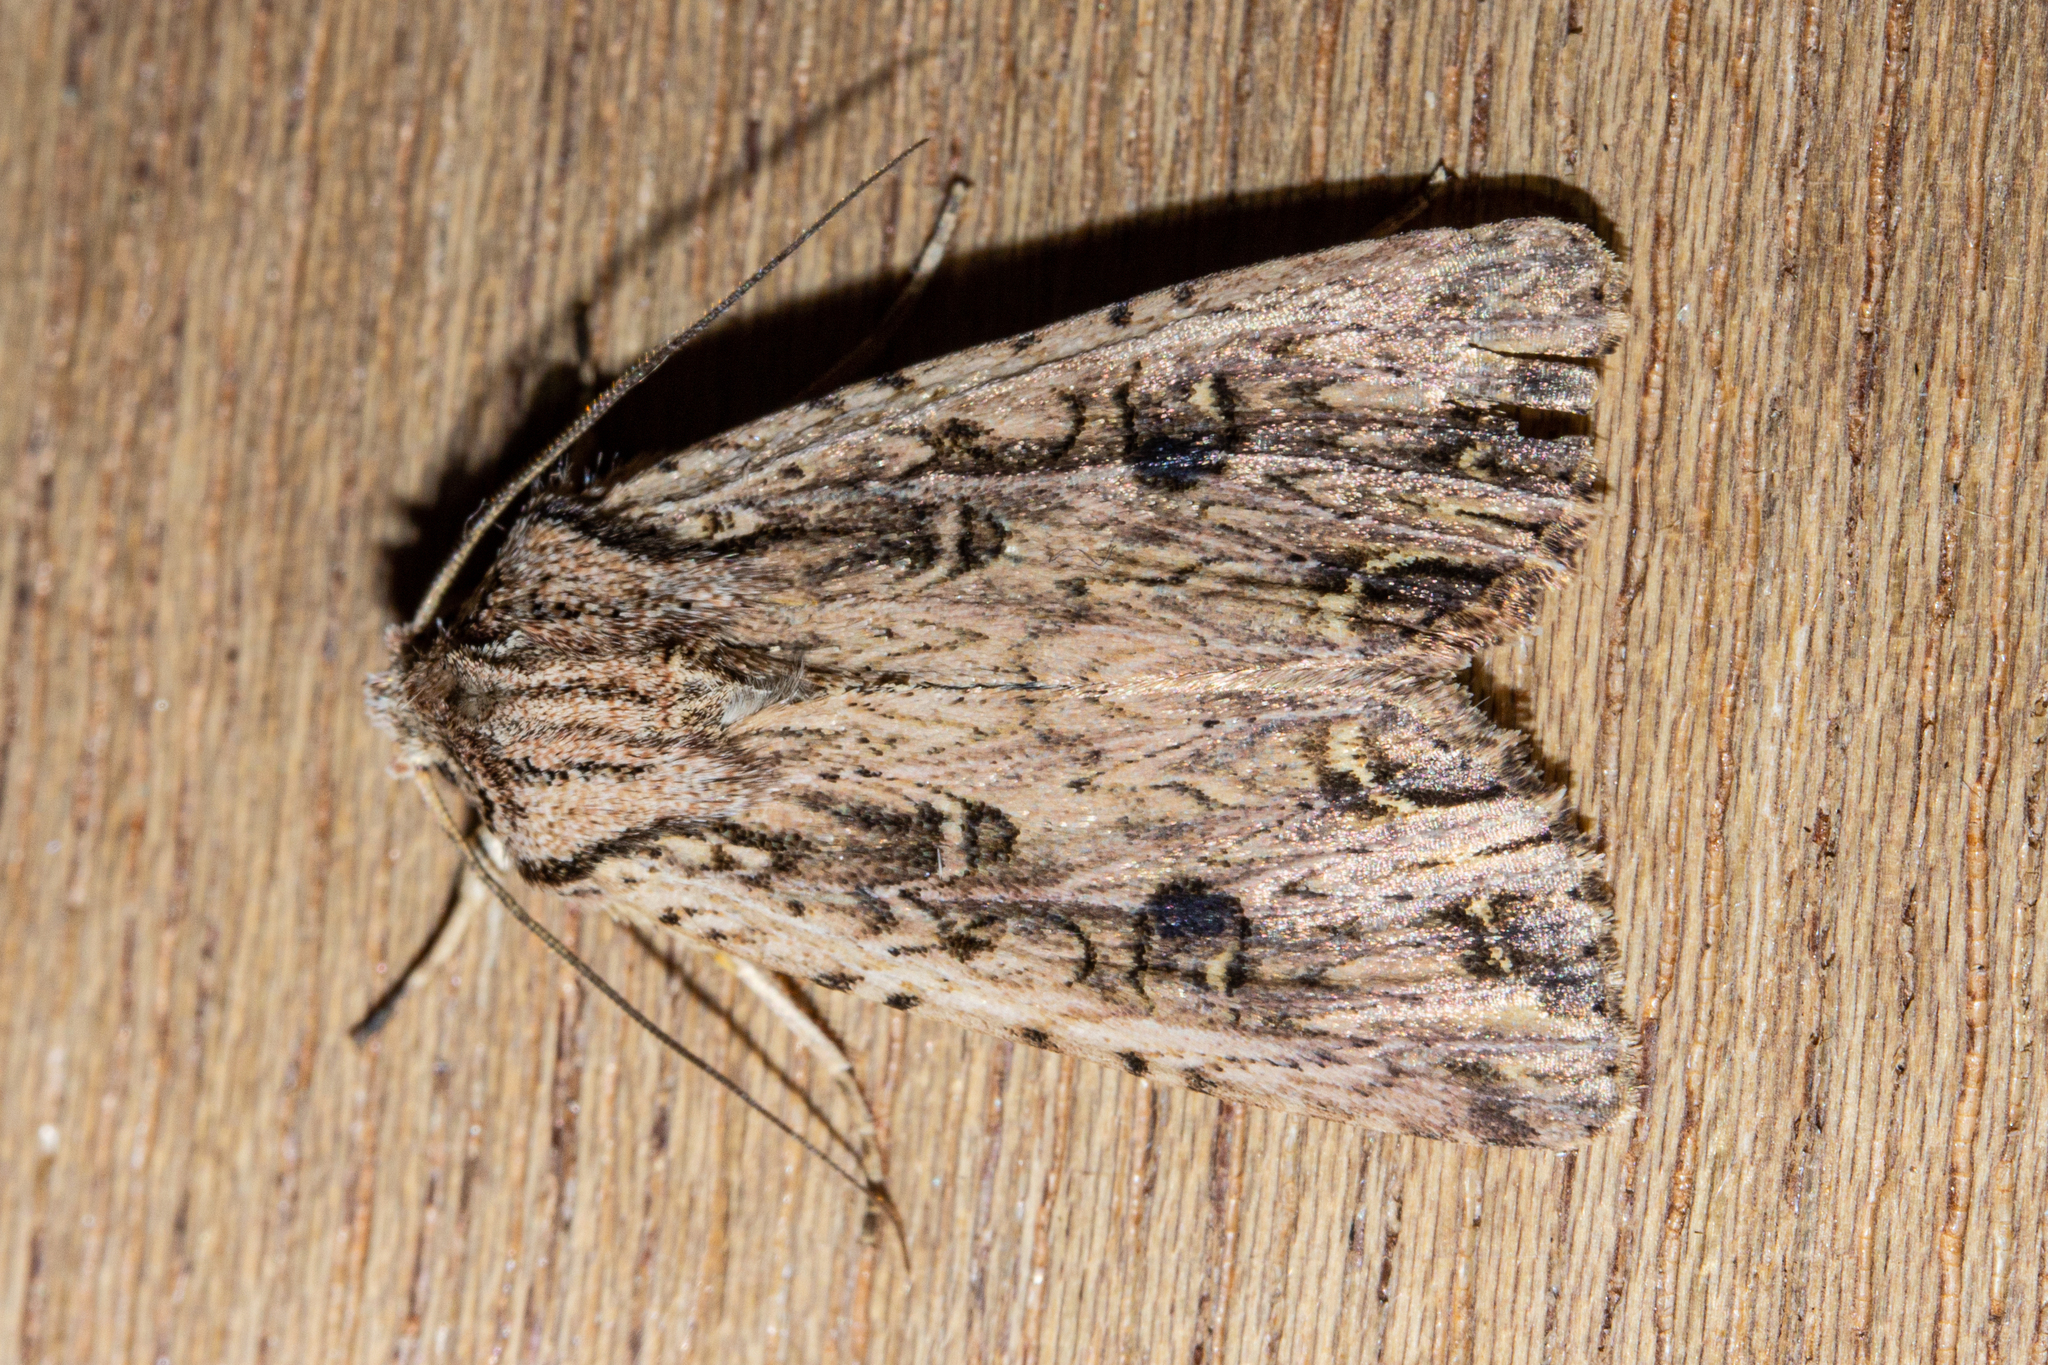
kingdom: Animalia
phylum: Arthropoda
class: Insecta
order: Lepidoptera
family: Noctuidae
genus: Ichneutica
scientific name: Ichneutica lignana
